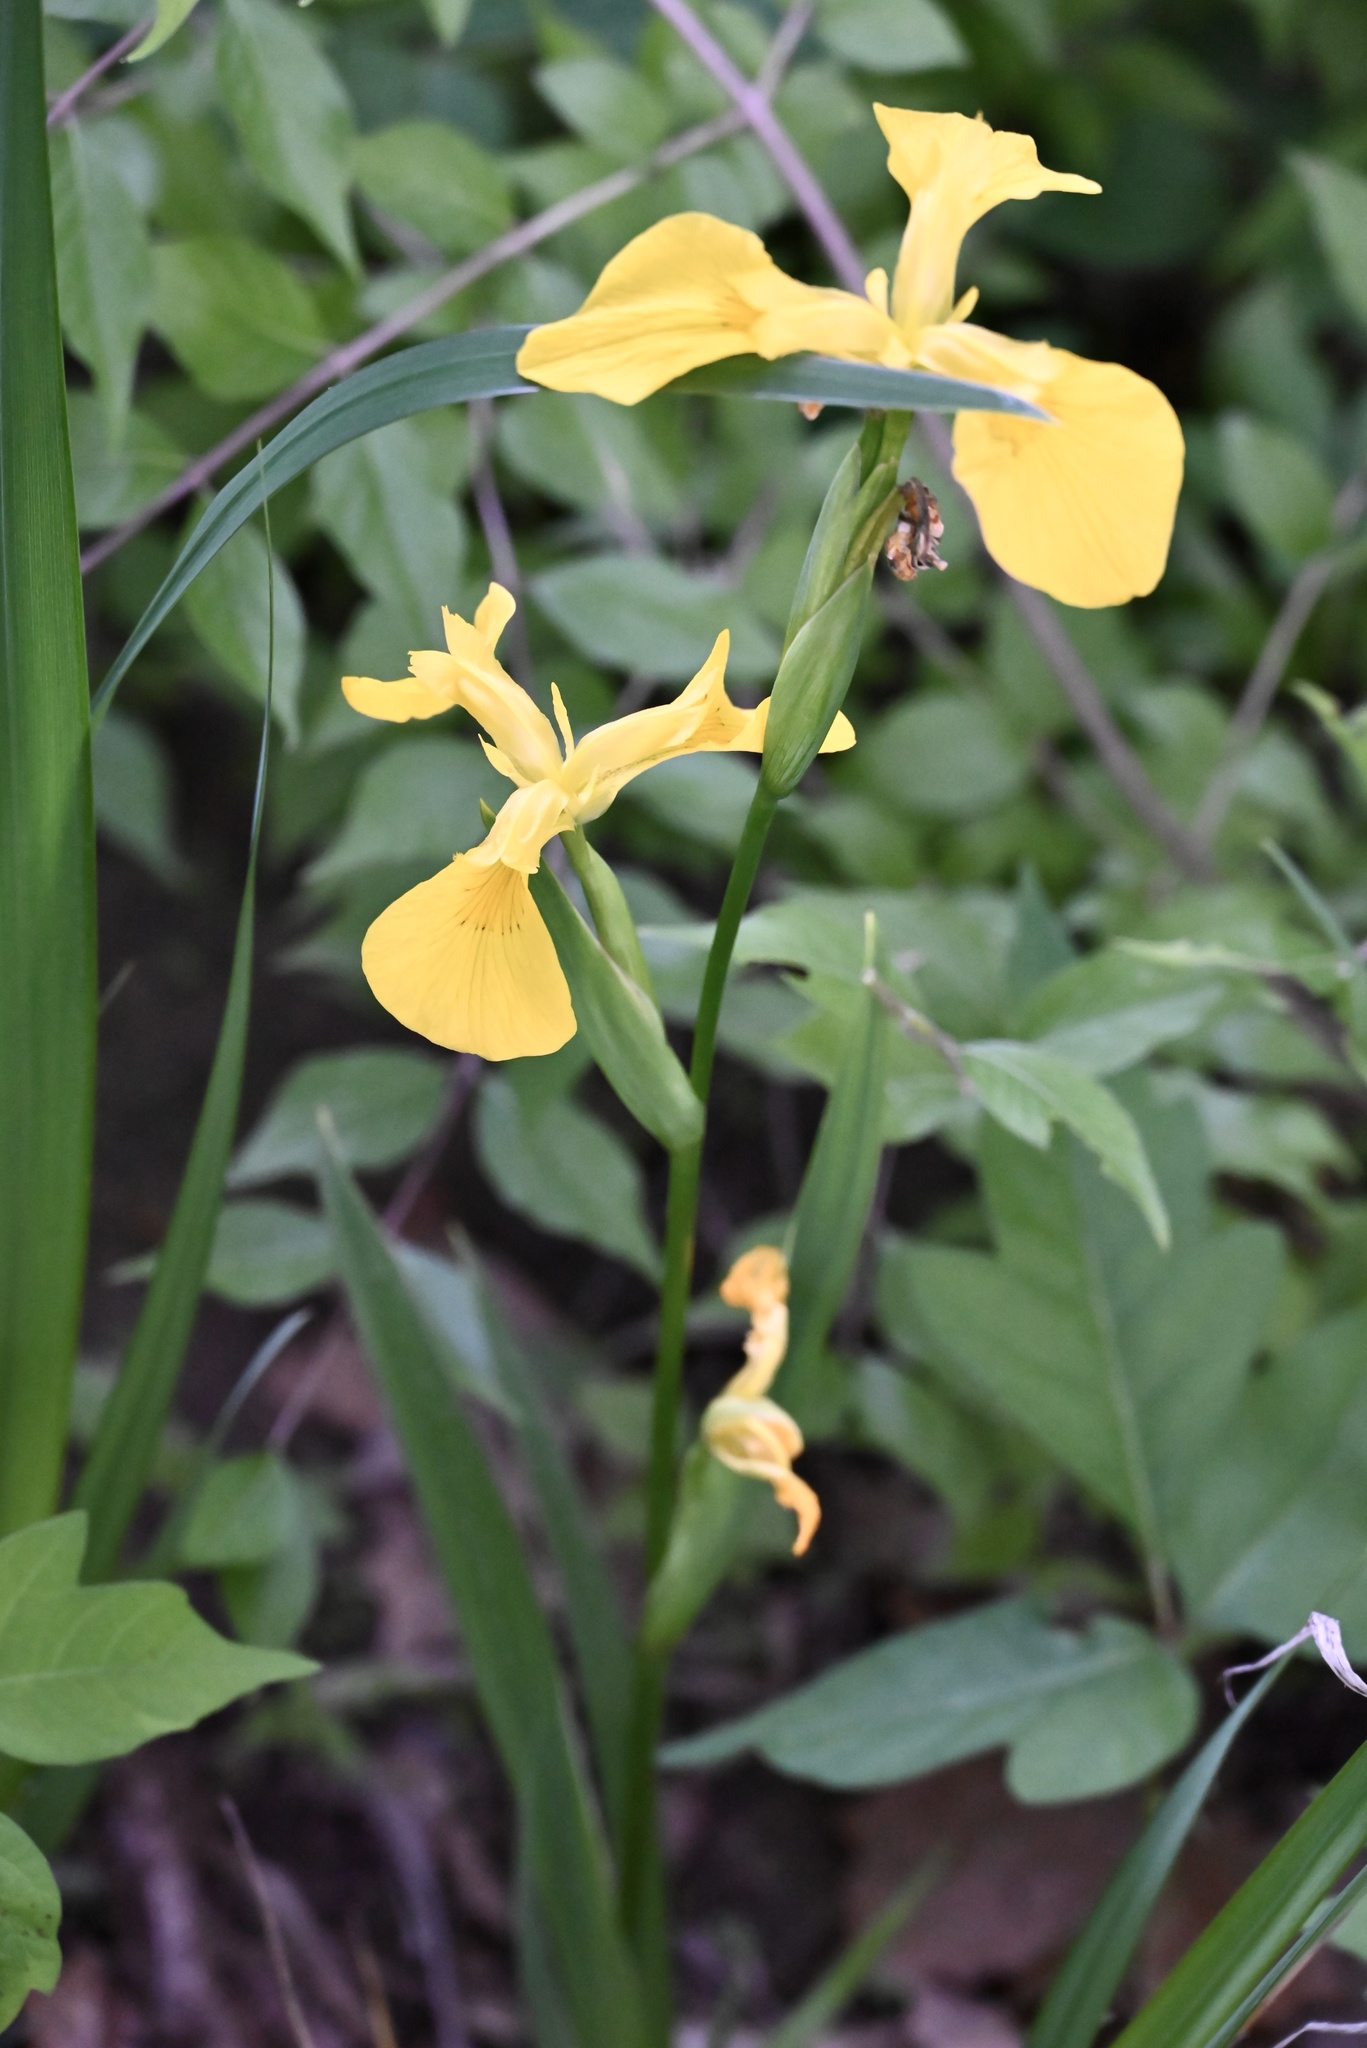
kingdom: Plantae
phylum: Tracheophyta
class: Liliopsida
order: Asparagales
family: Iridaceae
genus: Iris
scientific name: Iris pseudacorus
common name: Yellow flag
